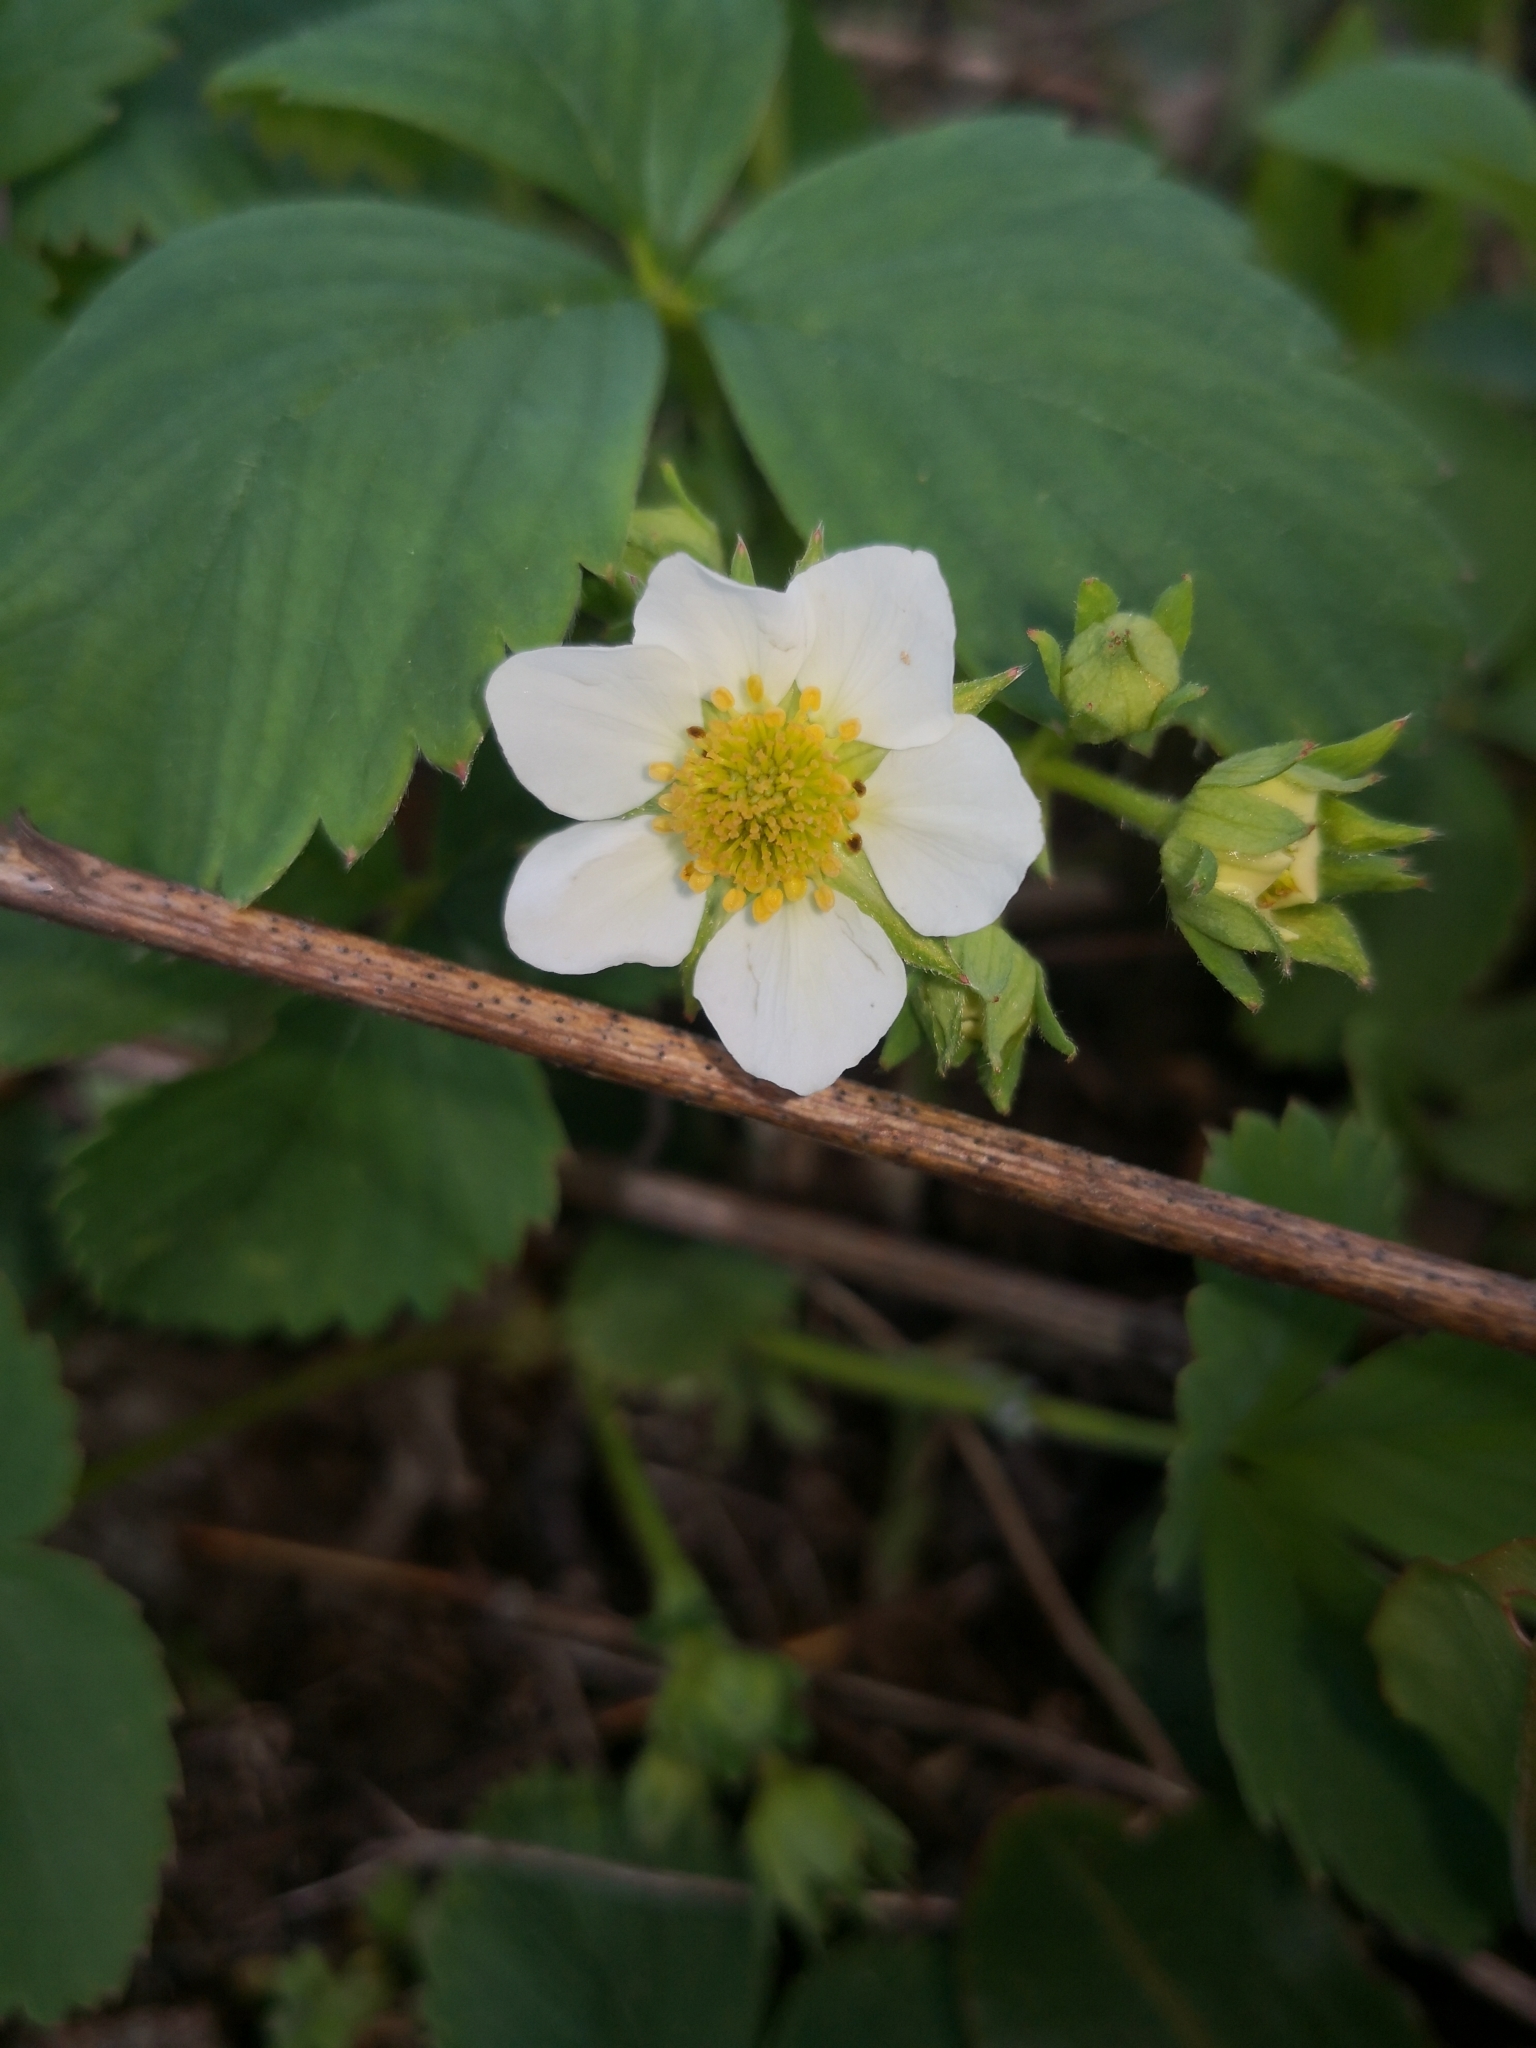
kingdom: Plantae
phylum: Tracheophyta
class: Magnoliopsida
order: Rosales
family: Rosaceae
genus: Fragaria
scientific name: Fragaria ananassa
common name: Garden strawberry
